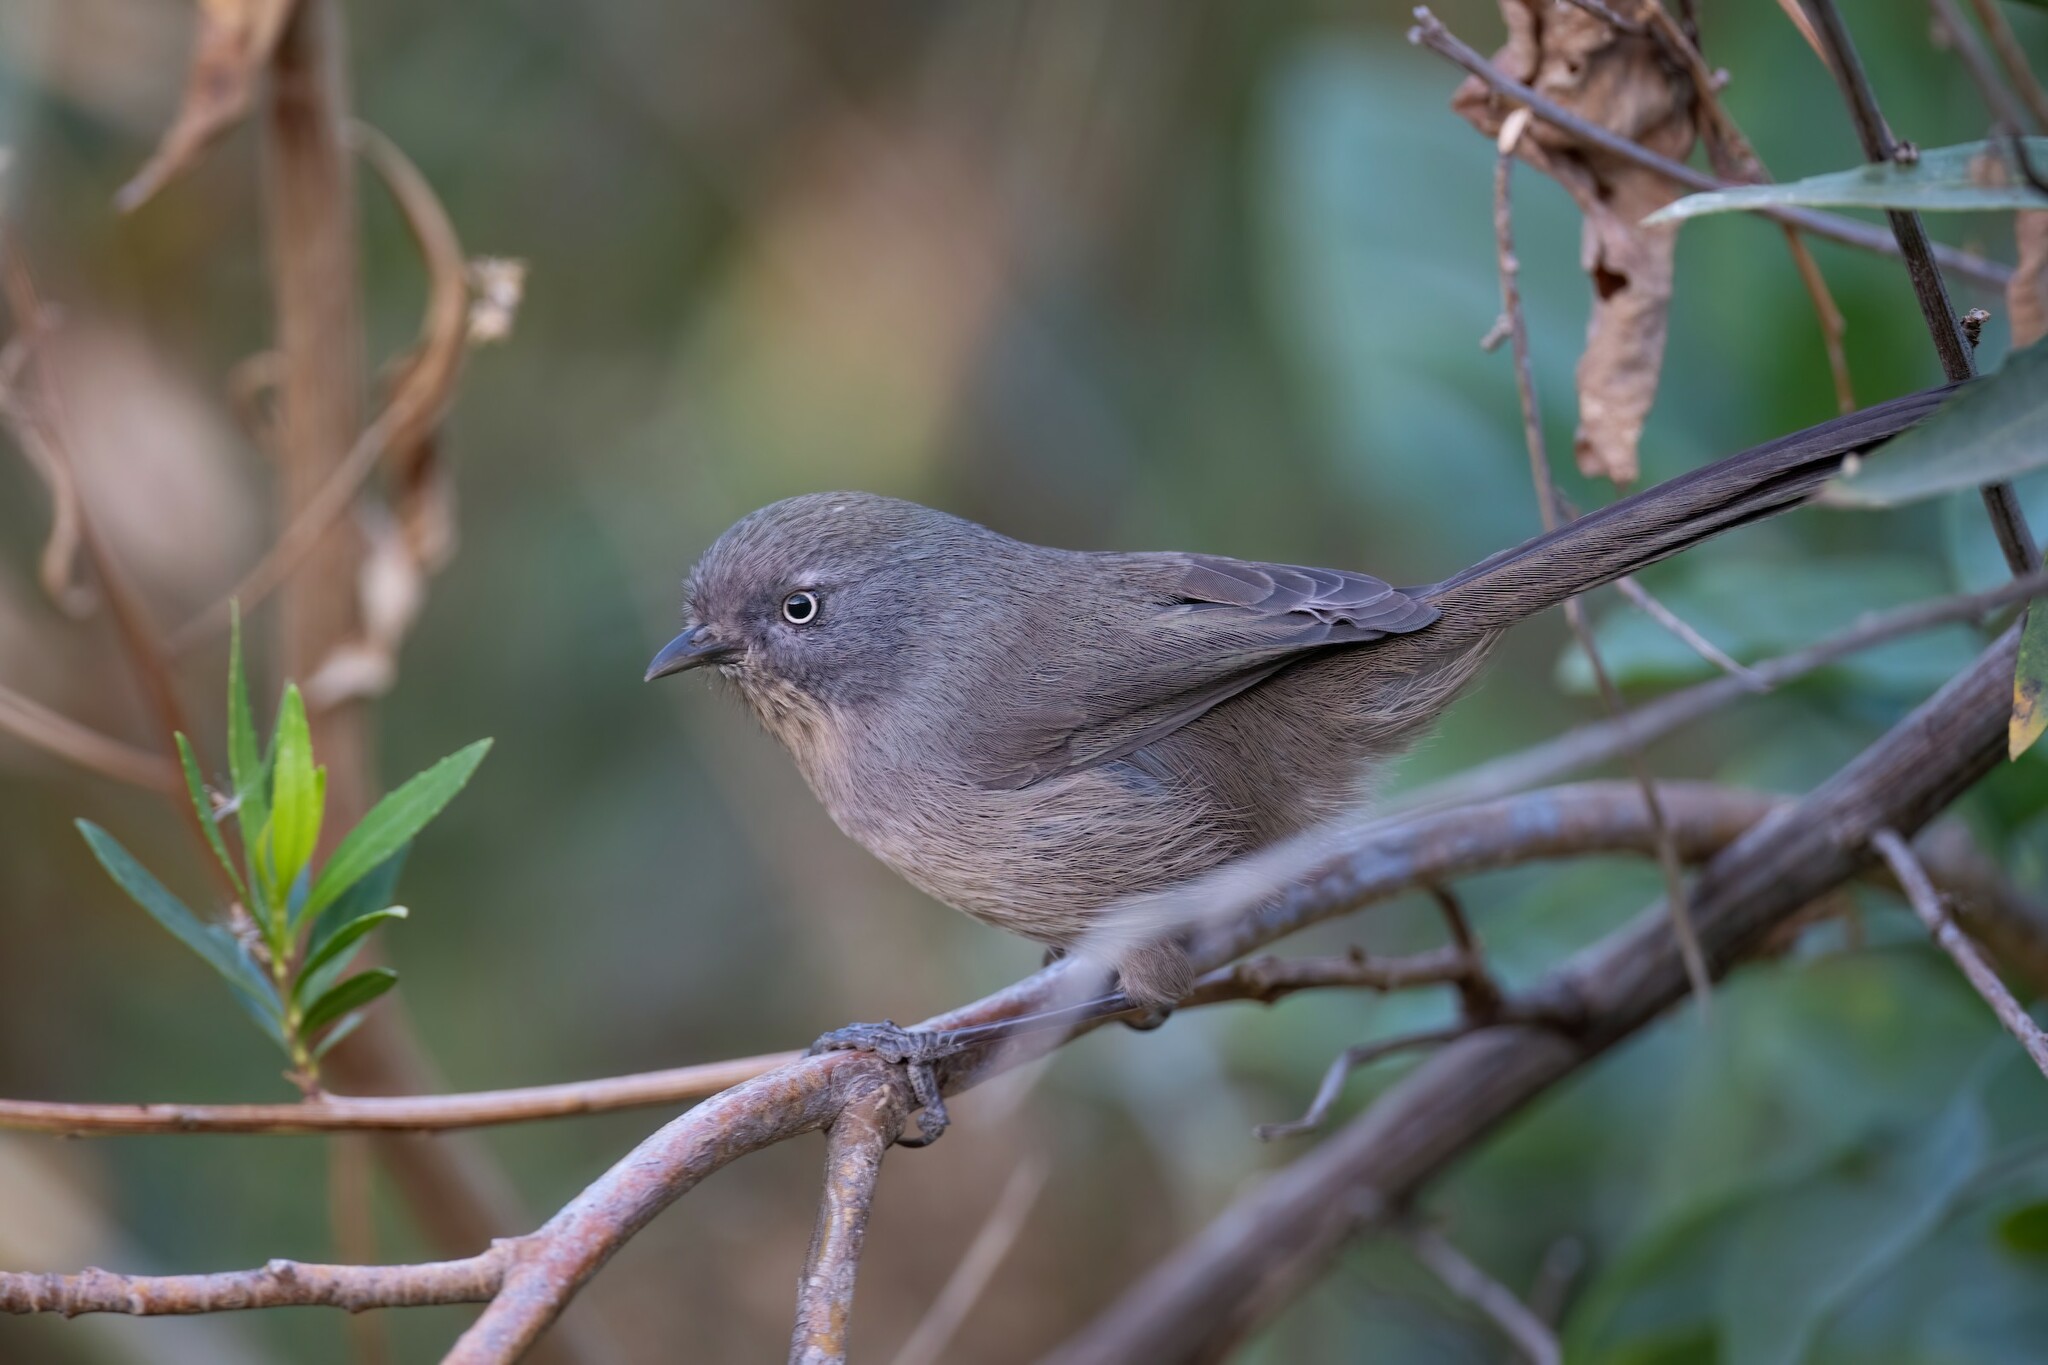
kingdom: Animalia
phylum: Chordata
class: Aves
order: Passeriformes
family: Sylviidae
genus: Chamaea
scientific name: Chamaea fasciata
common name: Wrentit
